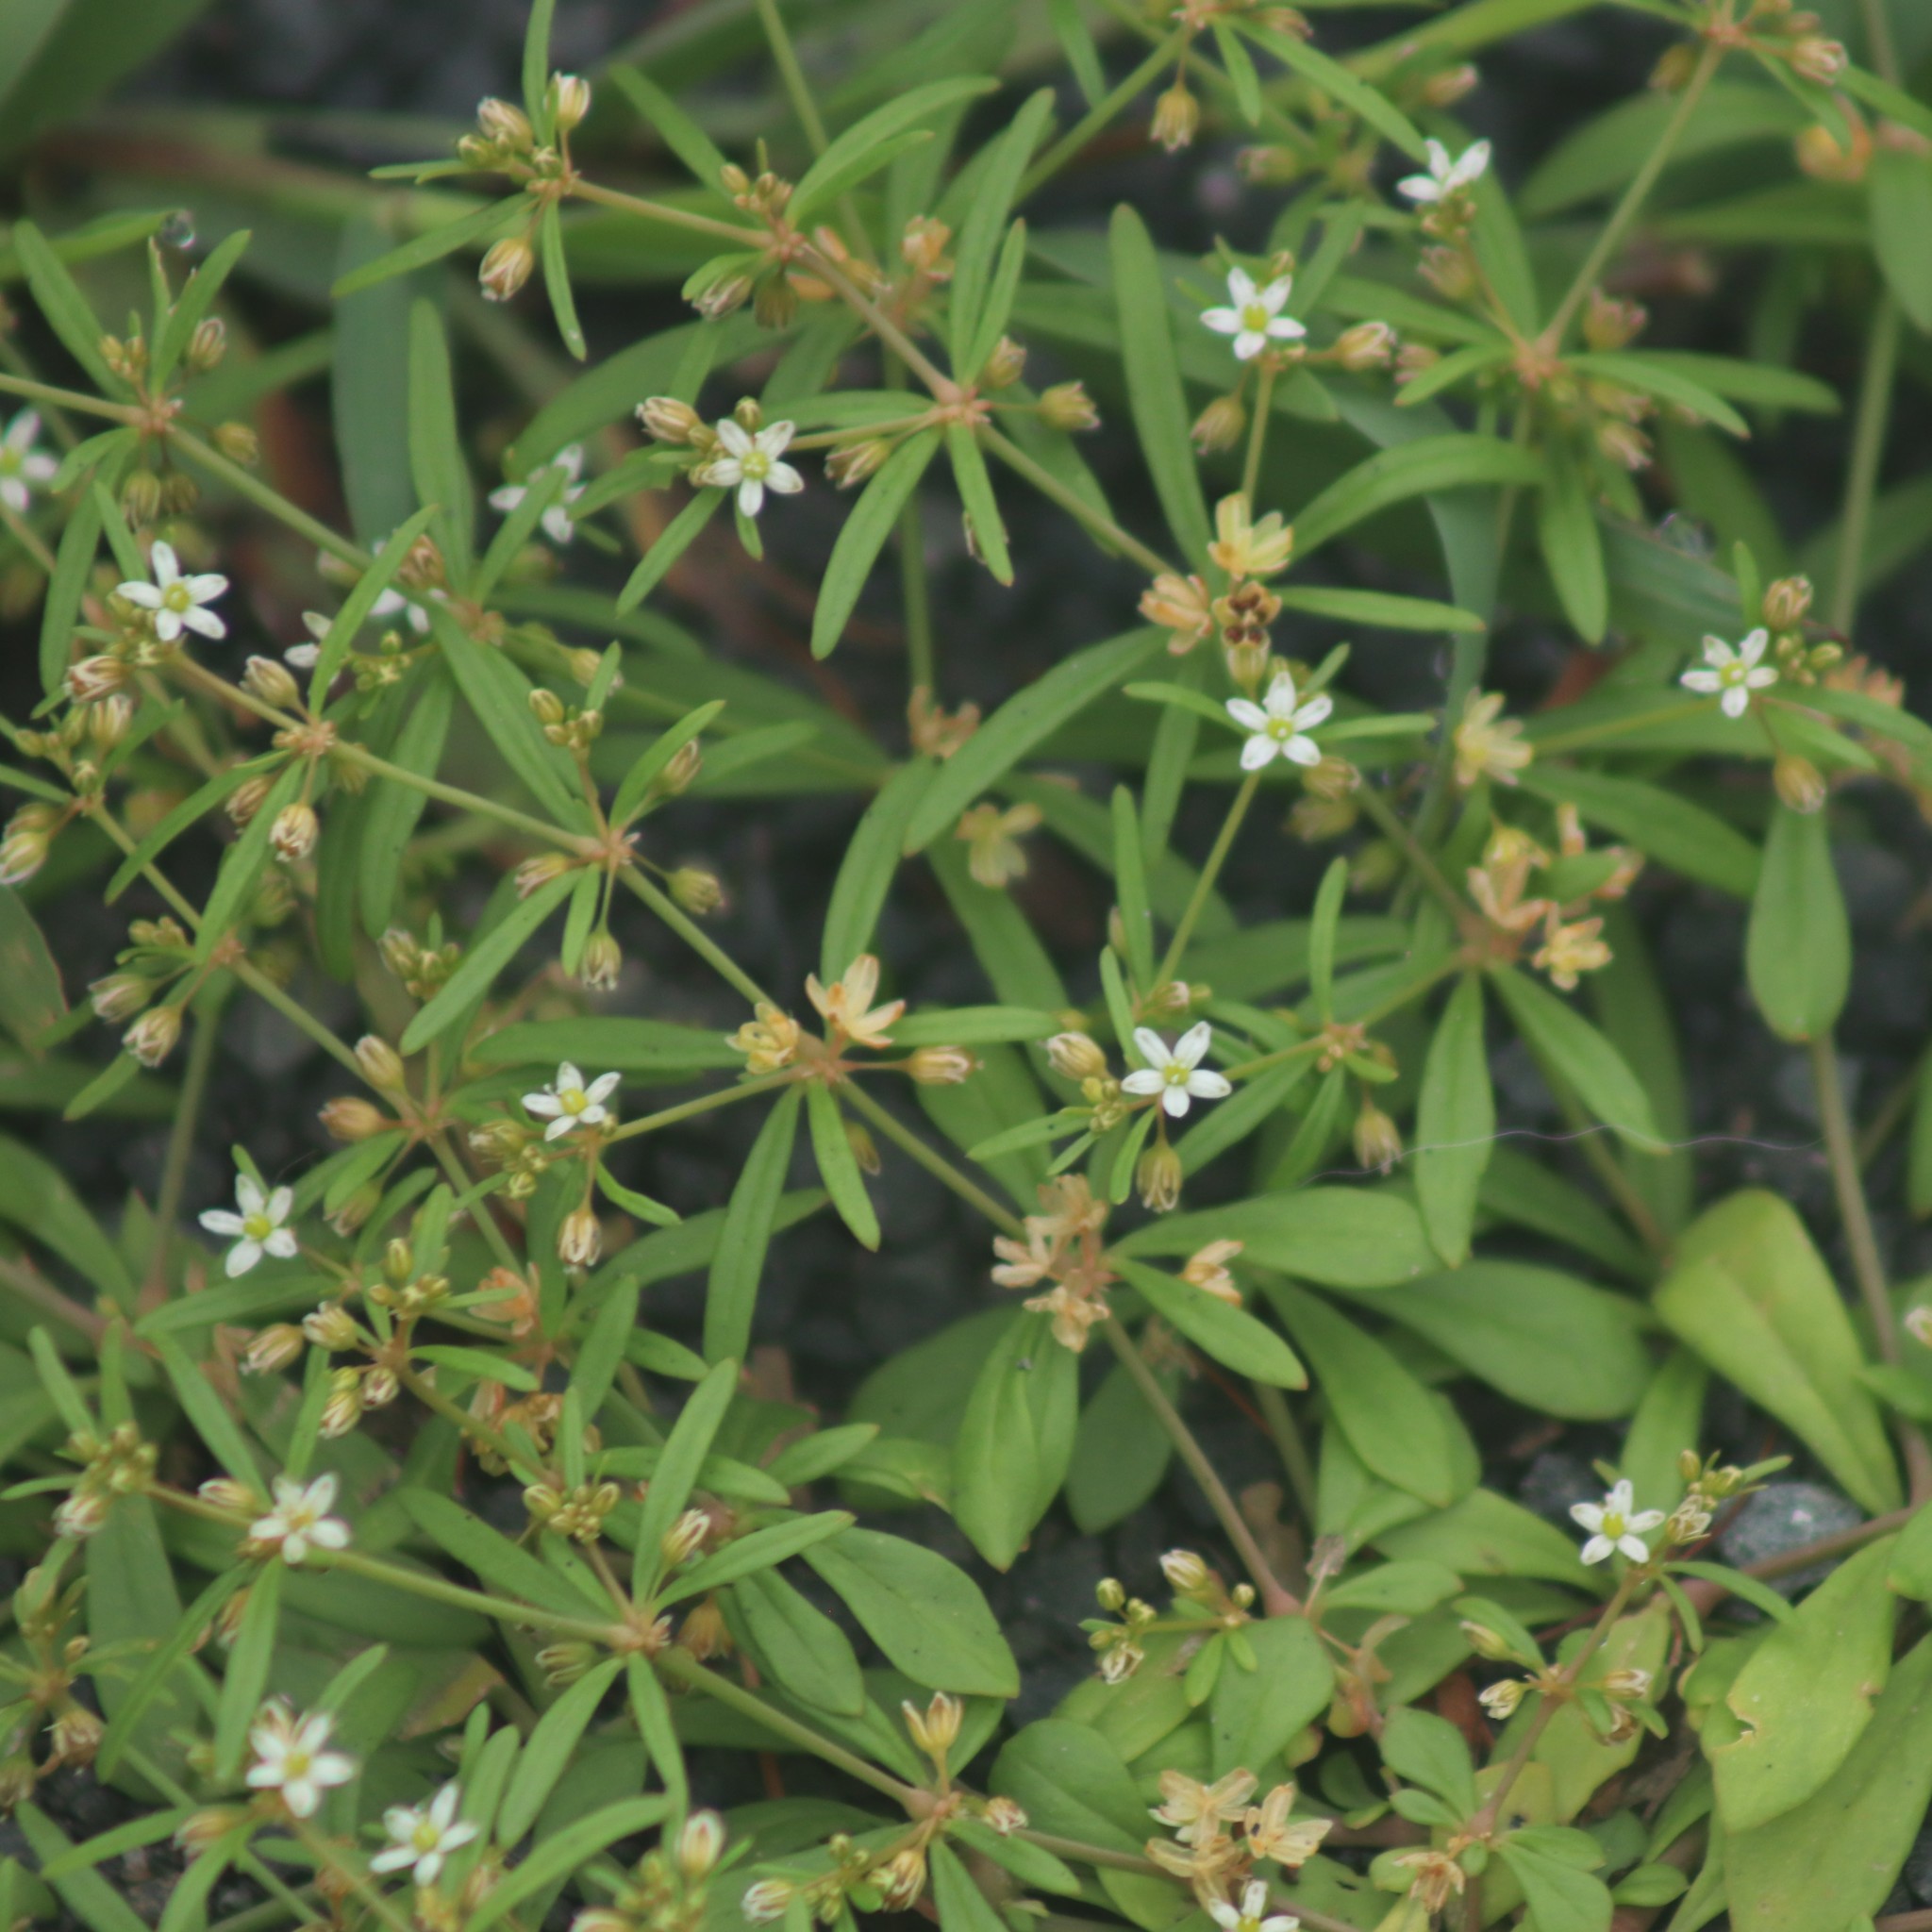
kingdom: Plantae
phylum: Tracheophyta
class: Magnoliopsida
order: Caryophyllales
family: Molluginaceae
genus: Mollugo
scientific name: Mollugo verticillata
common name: Green carpetweed
